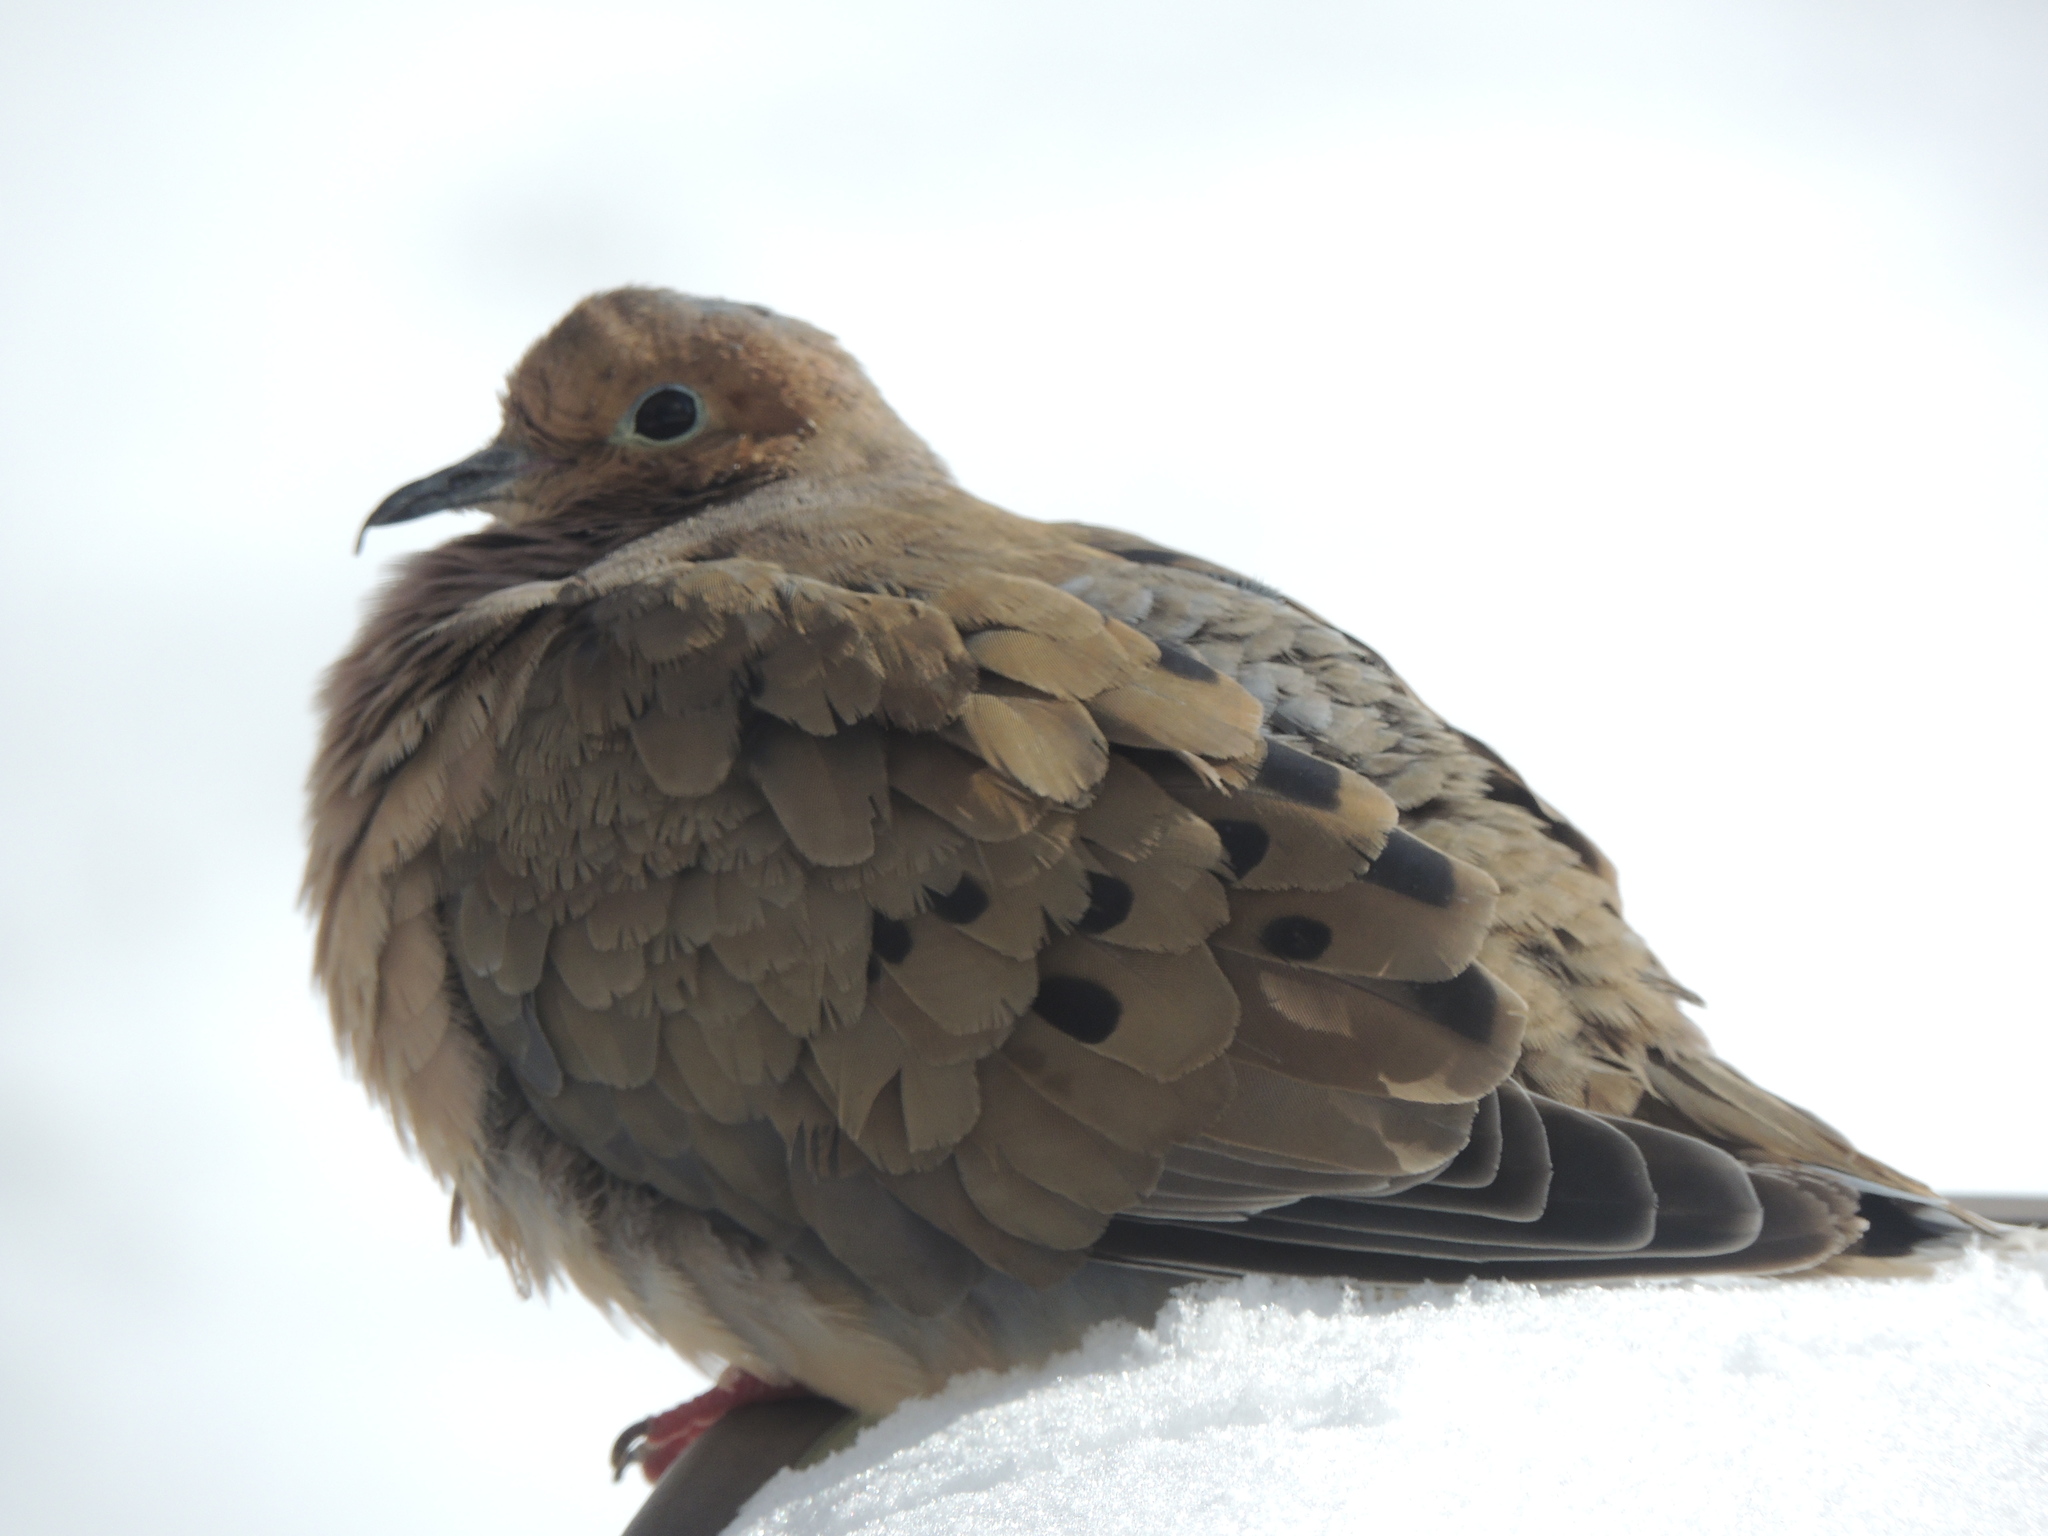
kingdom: Animalia
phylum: Chordata
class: Aves
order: Columbiformes
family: Columbidae
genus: Zenaida
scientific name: Zenaida macroura
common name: Mourning dove
